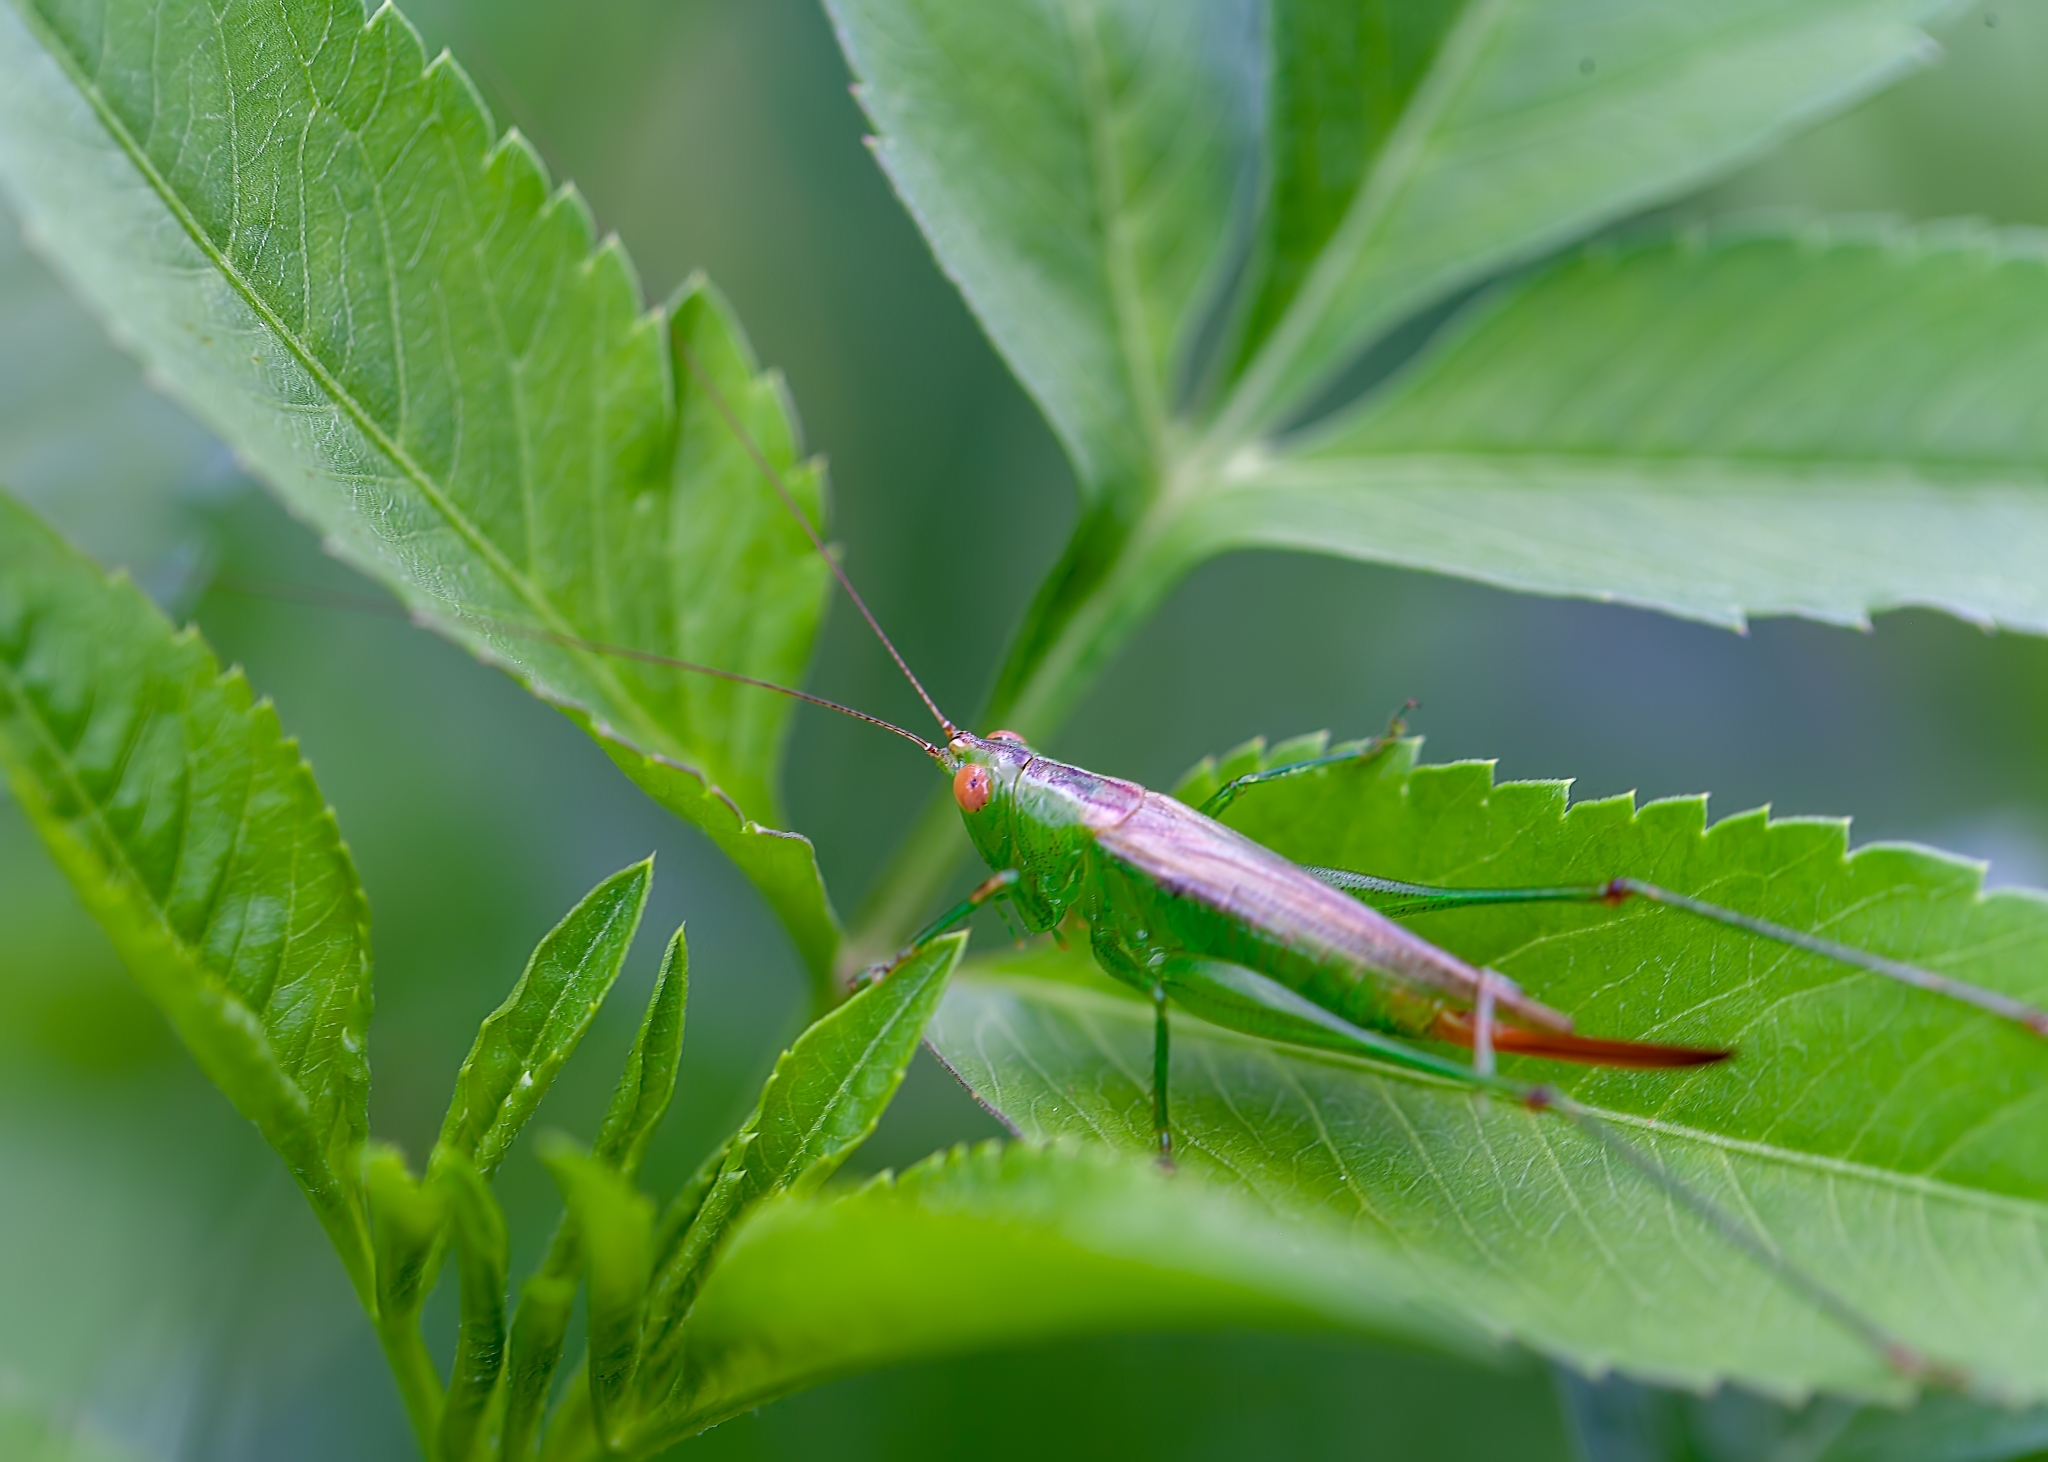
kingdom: Animalia
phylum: Arthropoda
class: Insecta
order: Orthoptera
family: Tettigoniidae
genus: Conocephalus
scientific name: Conocephalus cinereus
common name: Caribbean meadow katydid
